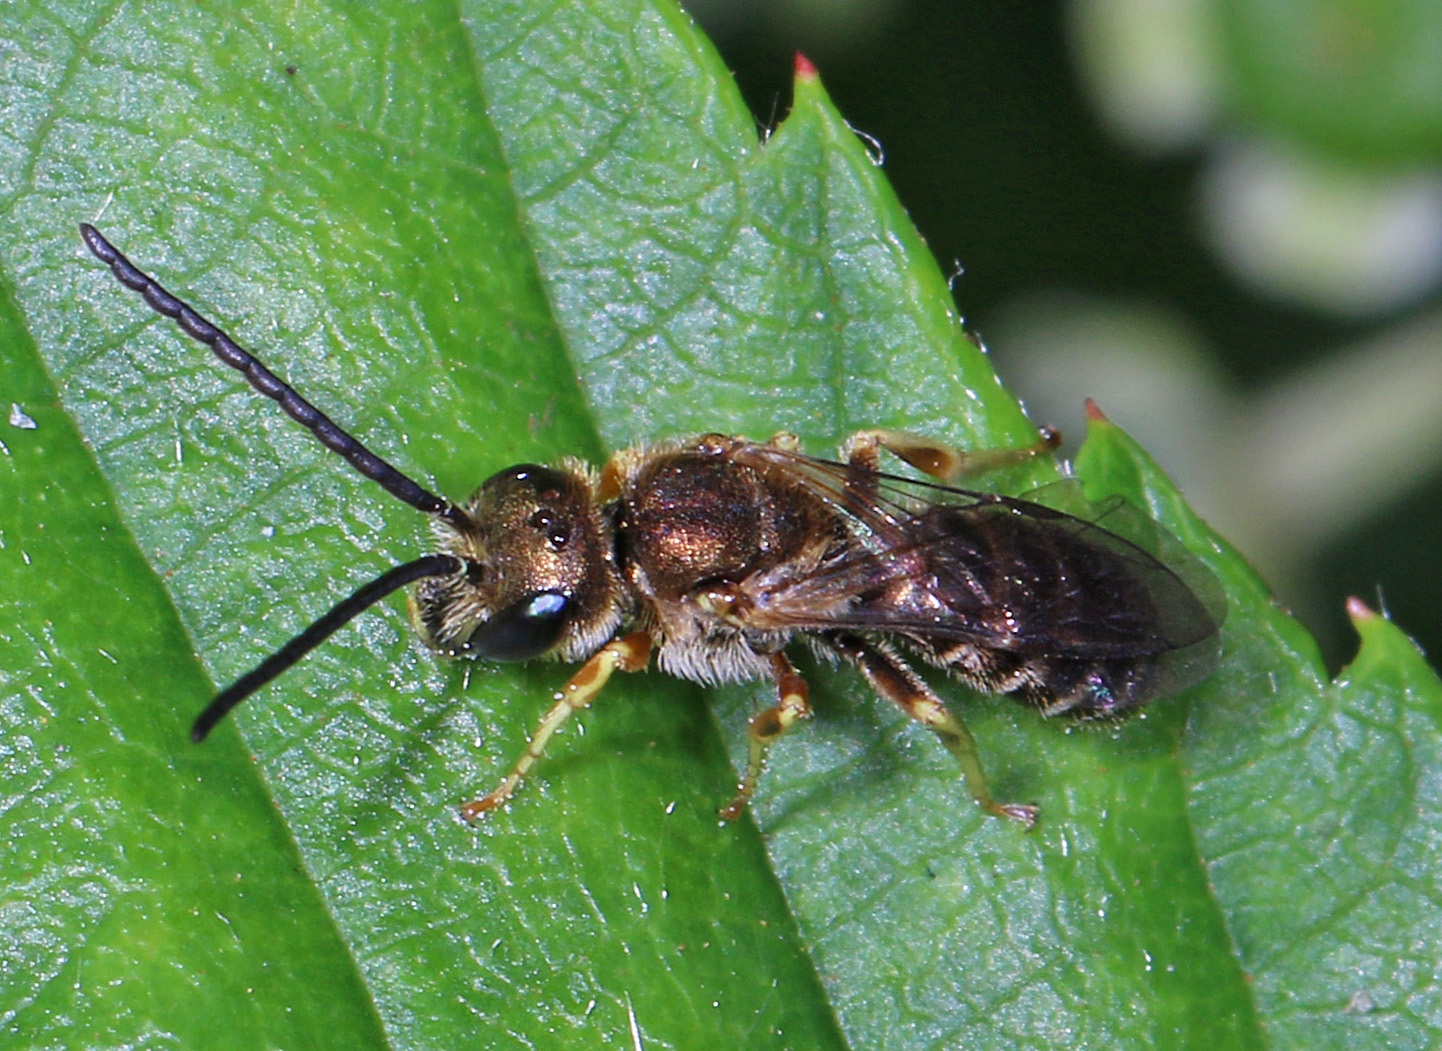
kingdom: Animalia
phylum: Arthropoda
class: Insecta
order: Hymenoptera
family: Halictidae
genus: Halictus
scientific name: Halictus confusus
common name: Southern bronze furrow bee
